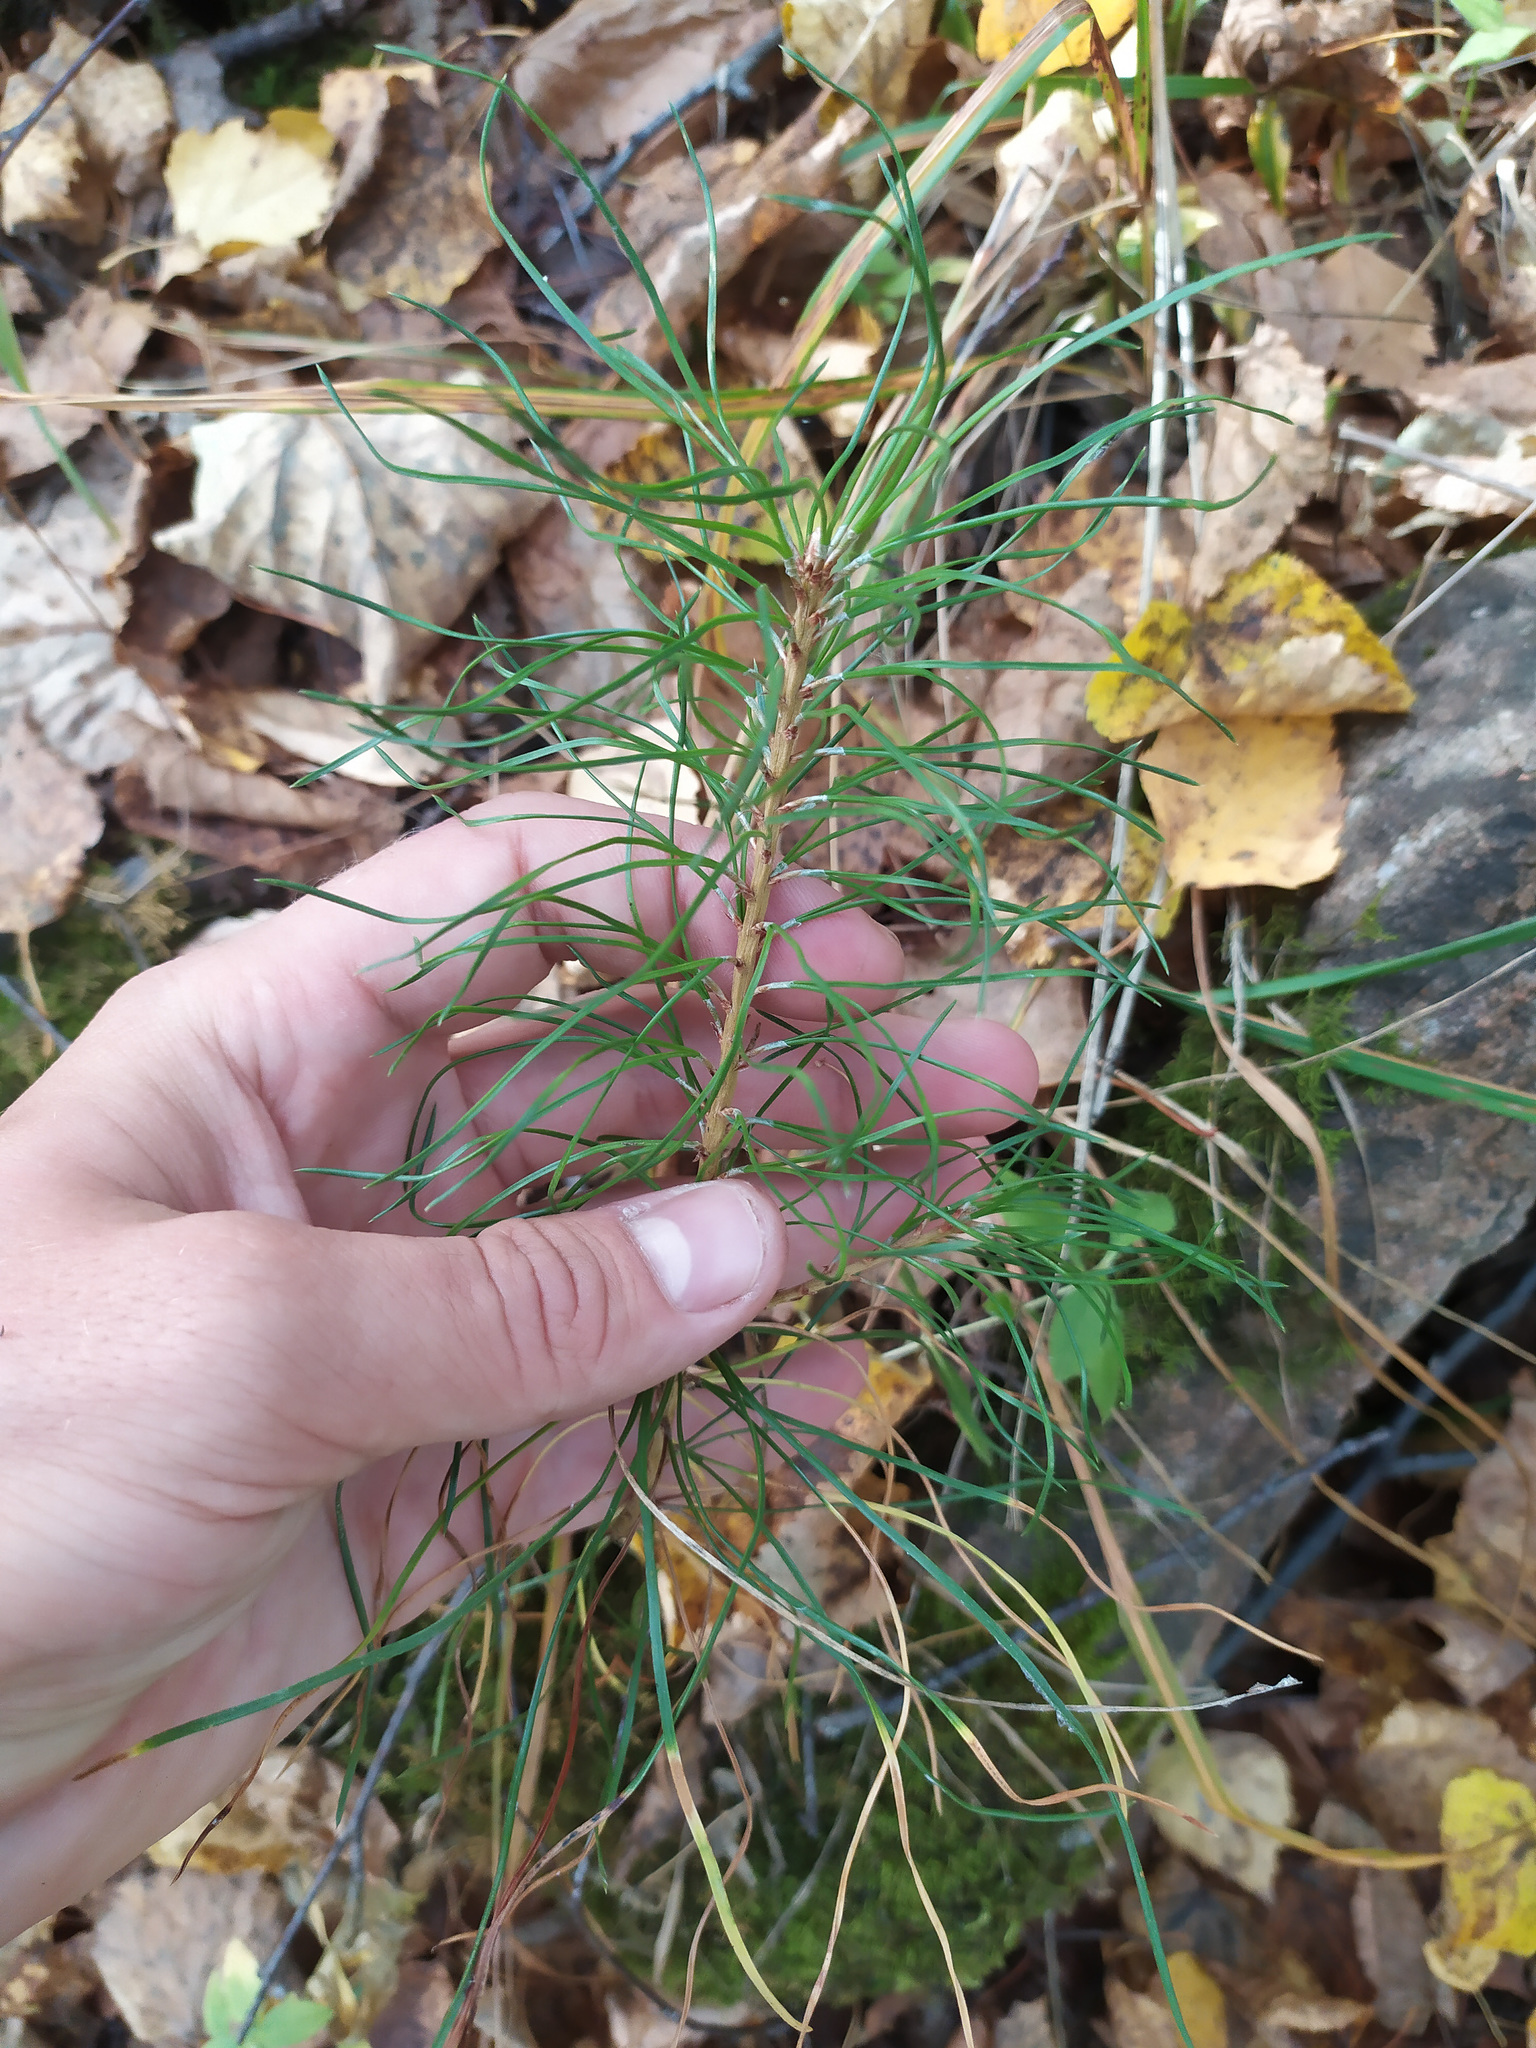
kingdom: Plantae
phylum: Tracheophyta
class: Pinopsida
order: Pinales
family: Pinaceae
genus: Pinus
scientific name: Pinus sylvestris
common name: Scots pine
